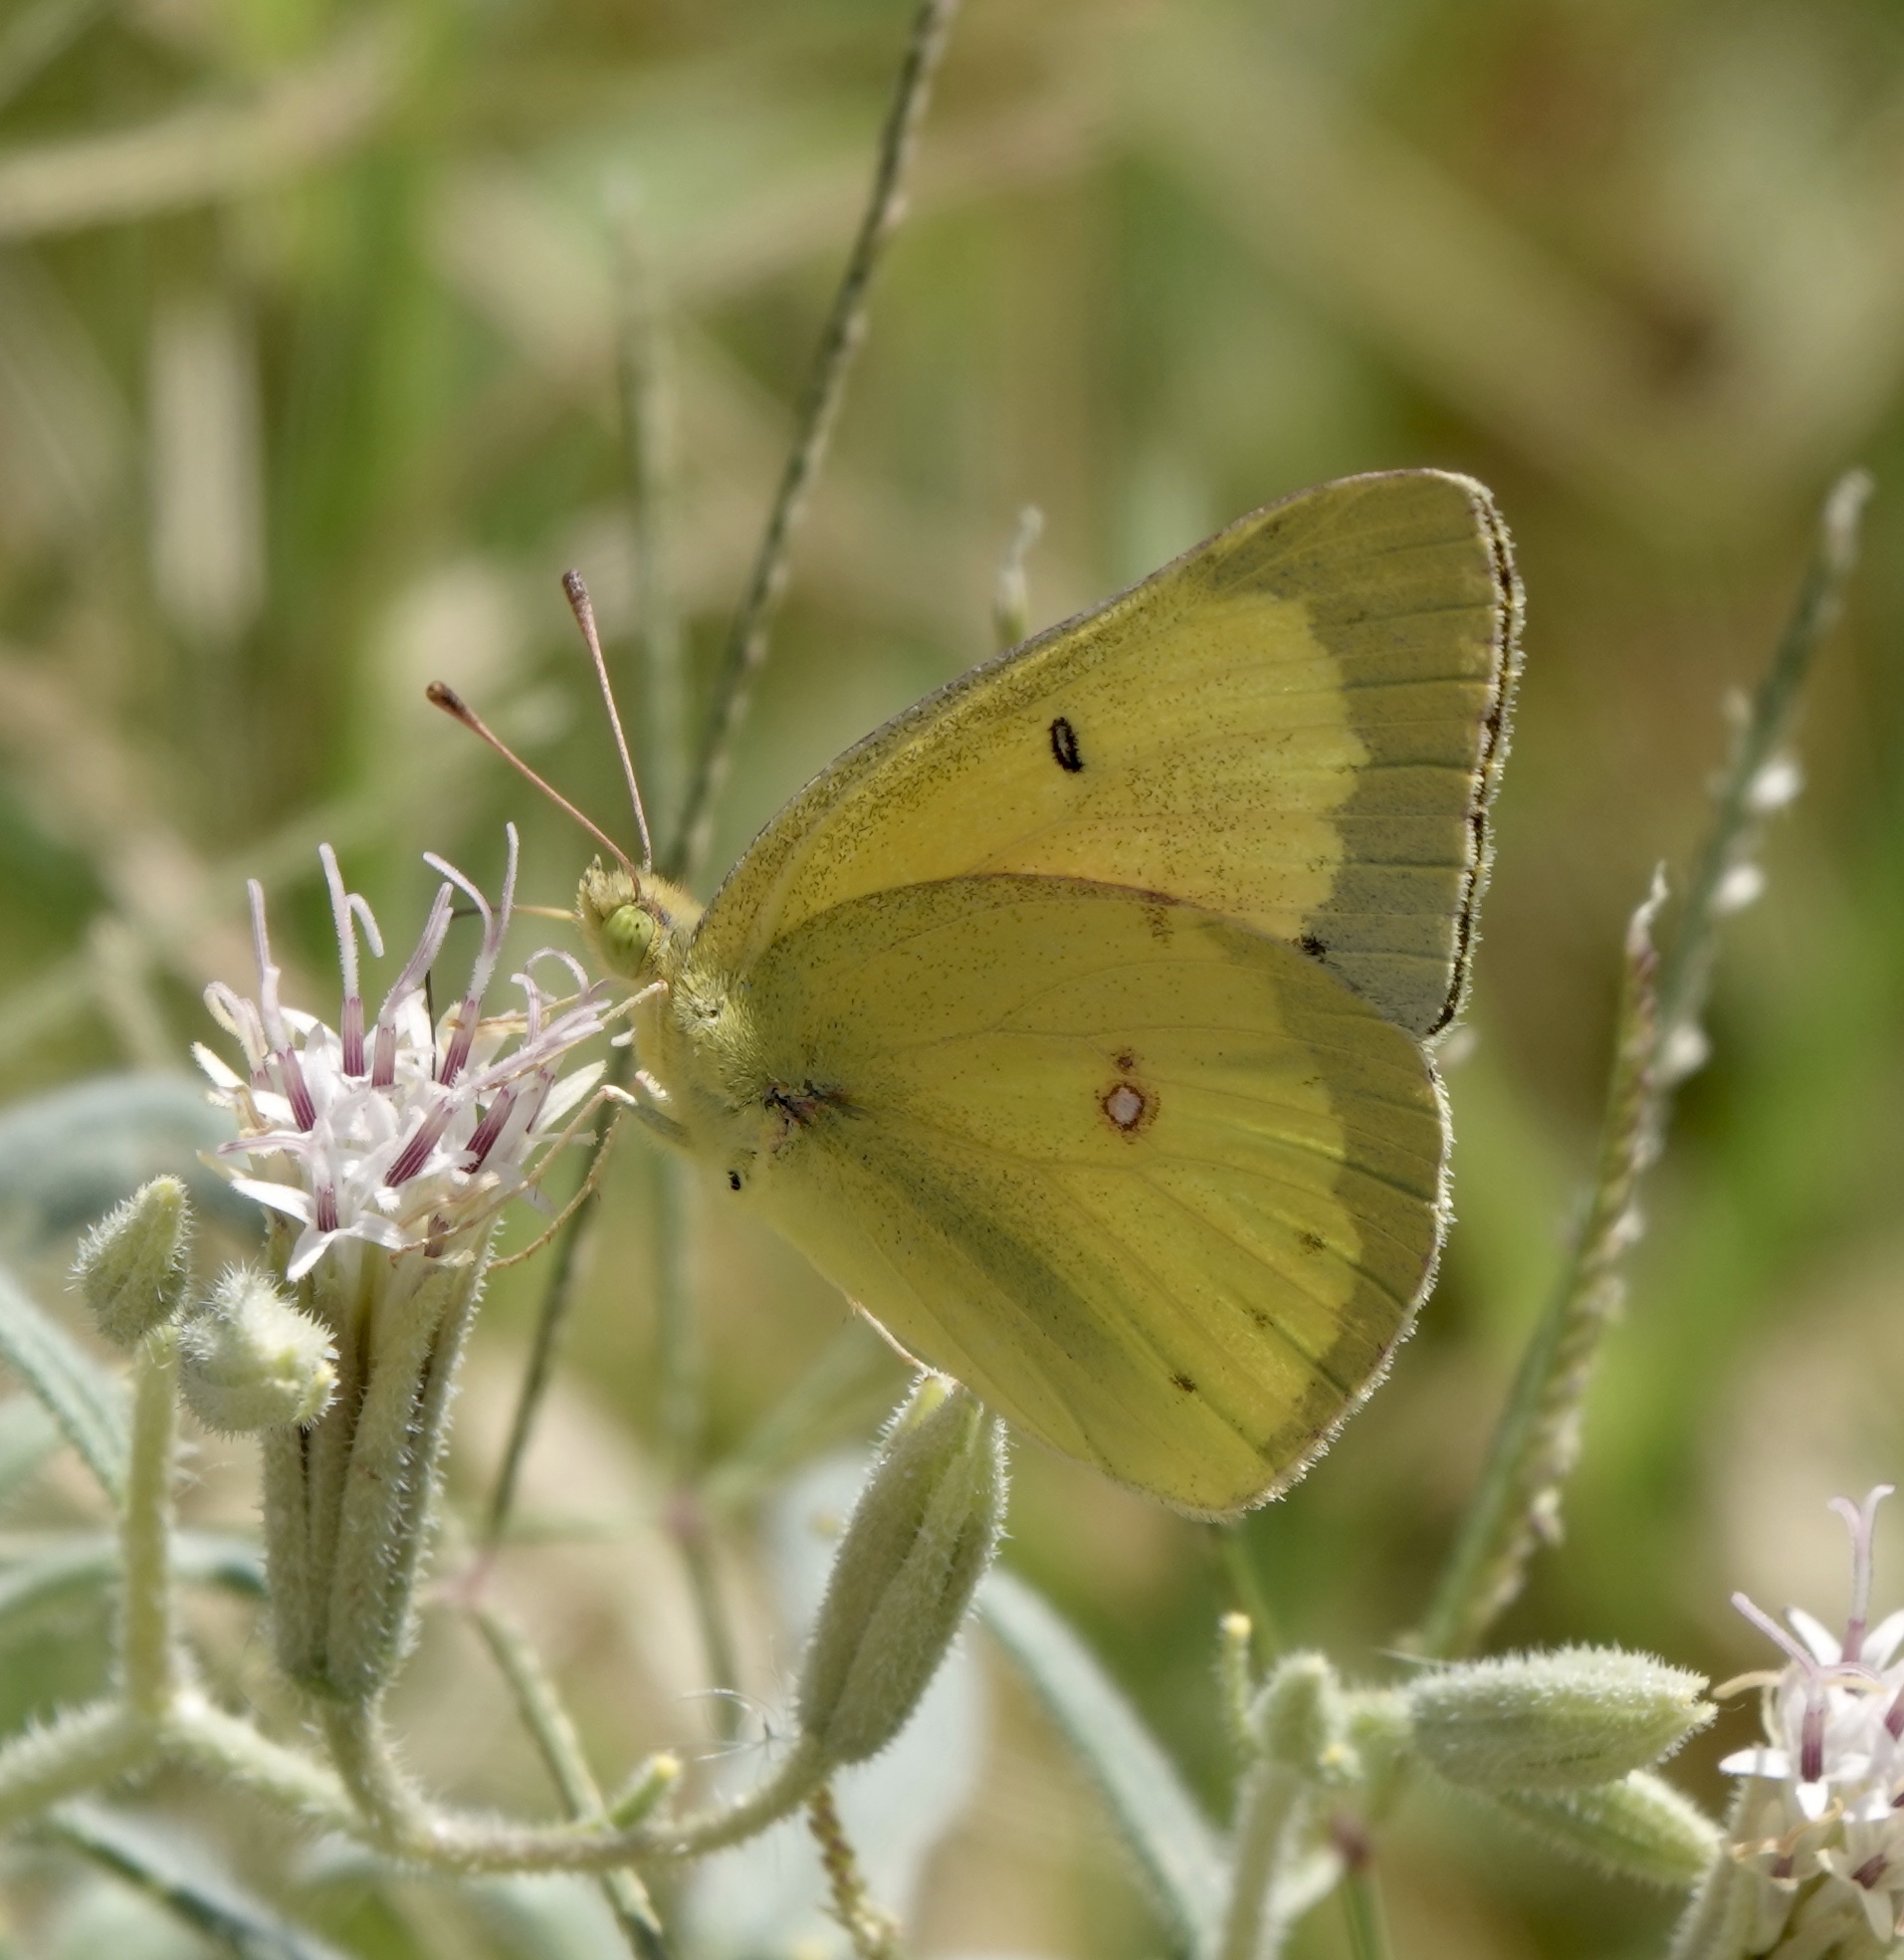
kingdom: Animalia
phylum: Arthropoda
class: Insecta
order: Lepidoptera
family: Pieridae
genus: Colias
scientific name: Colias eurytheme
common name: Alfalfa butterfly
